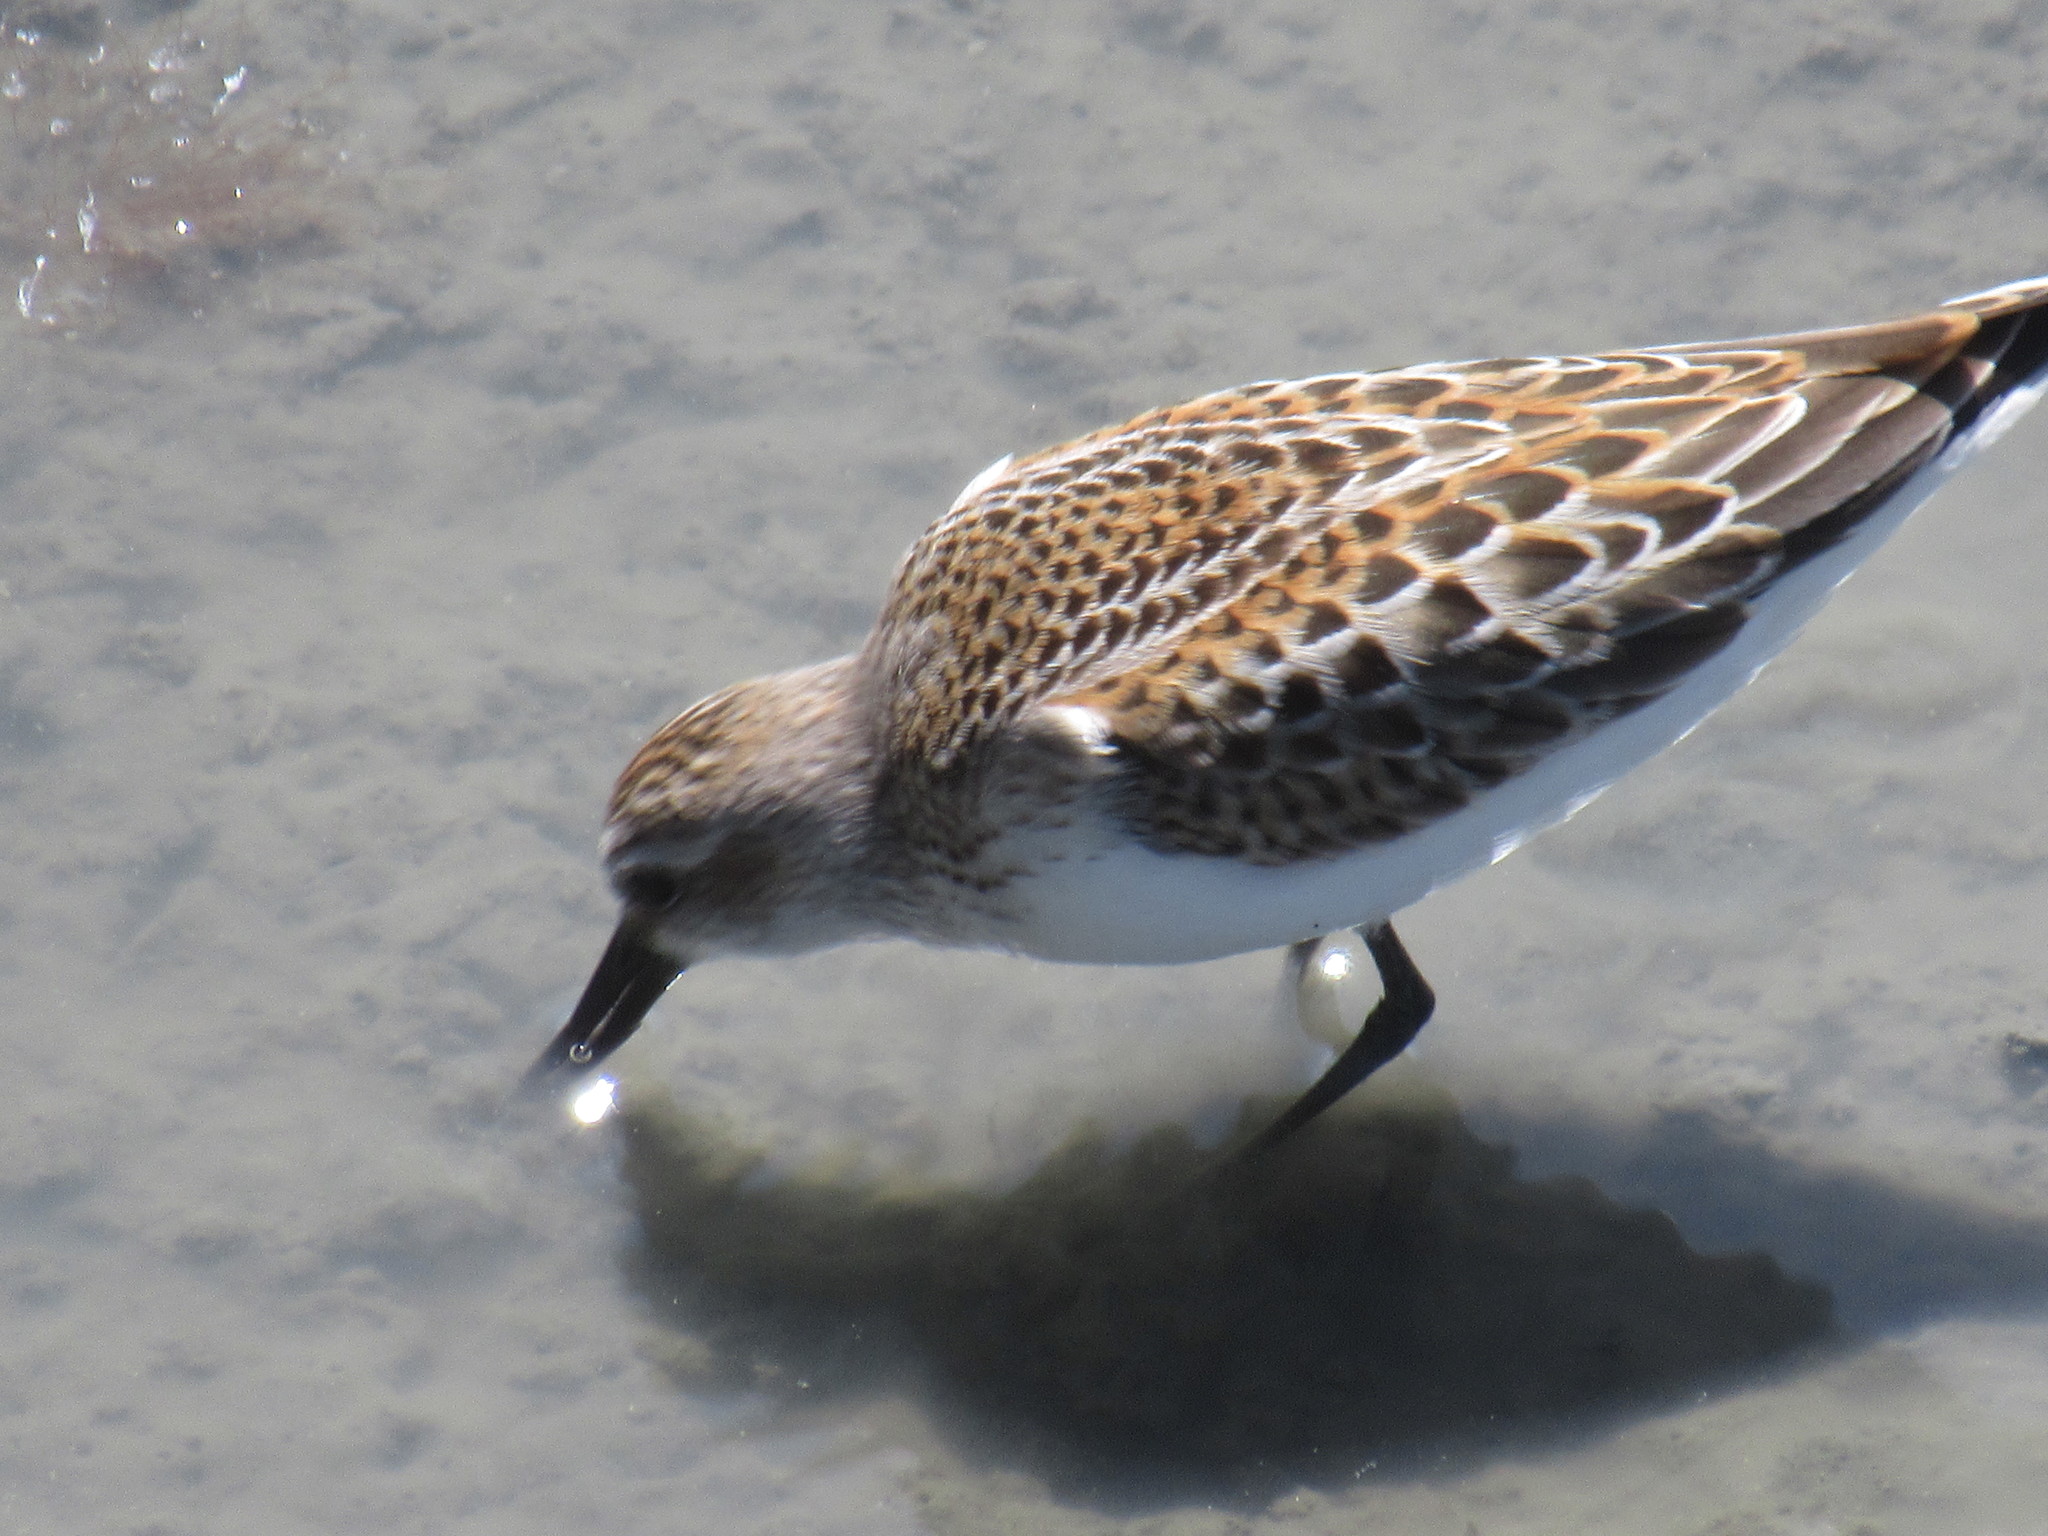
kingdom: Animalia
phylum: Chordata
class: Aves
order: Charadriiformes
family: Scolopacidae
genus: Calidris
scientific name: Calidris mauri
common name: Western sandpiper
